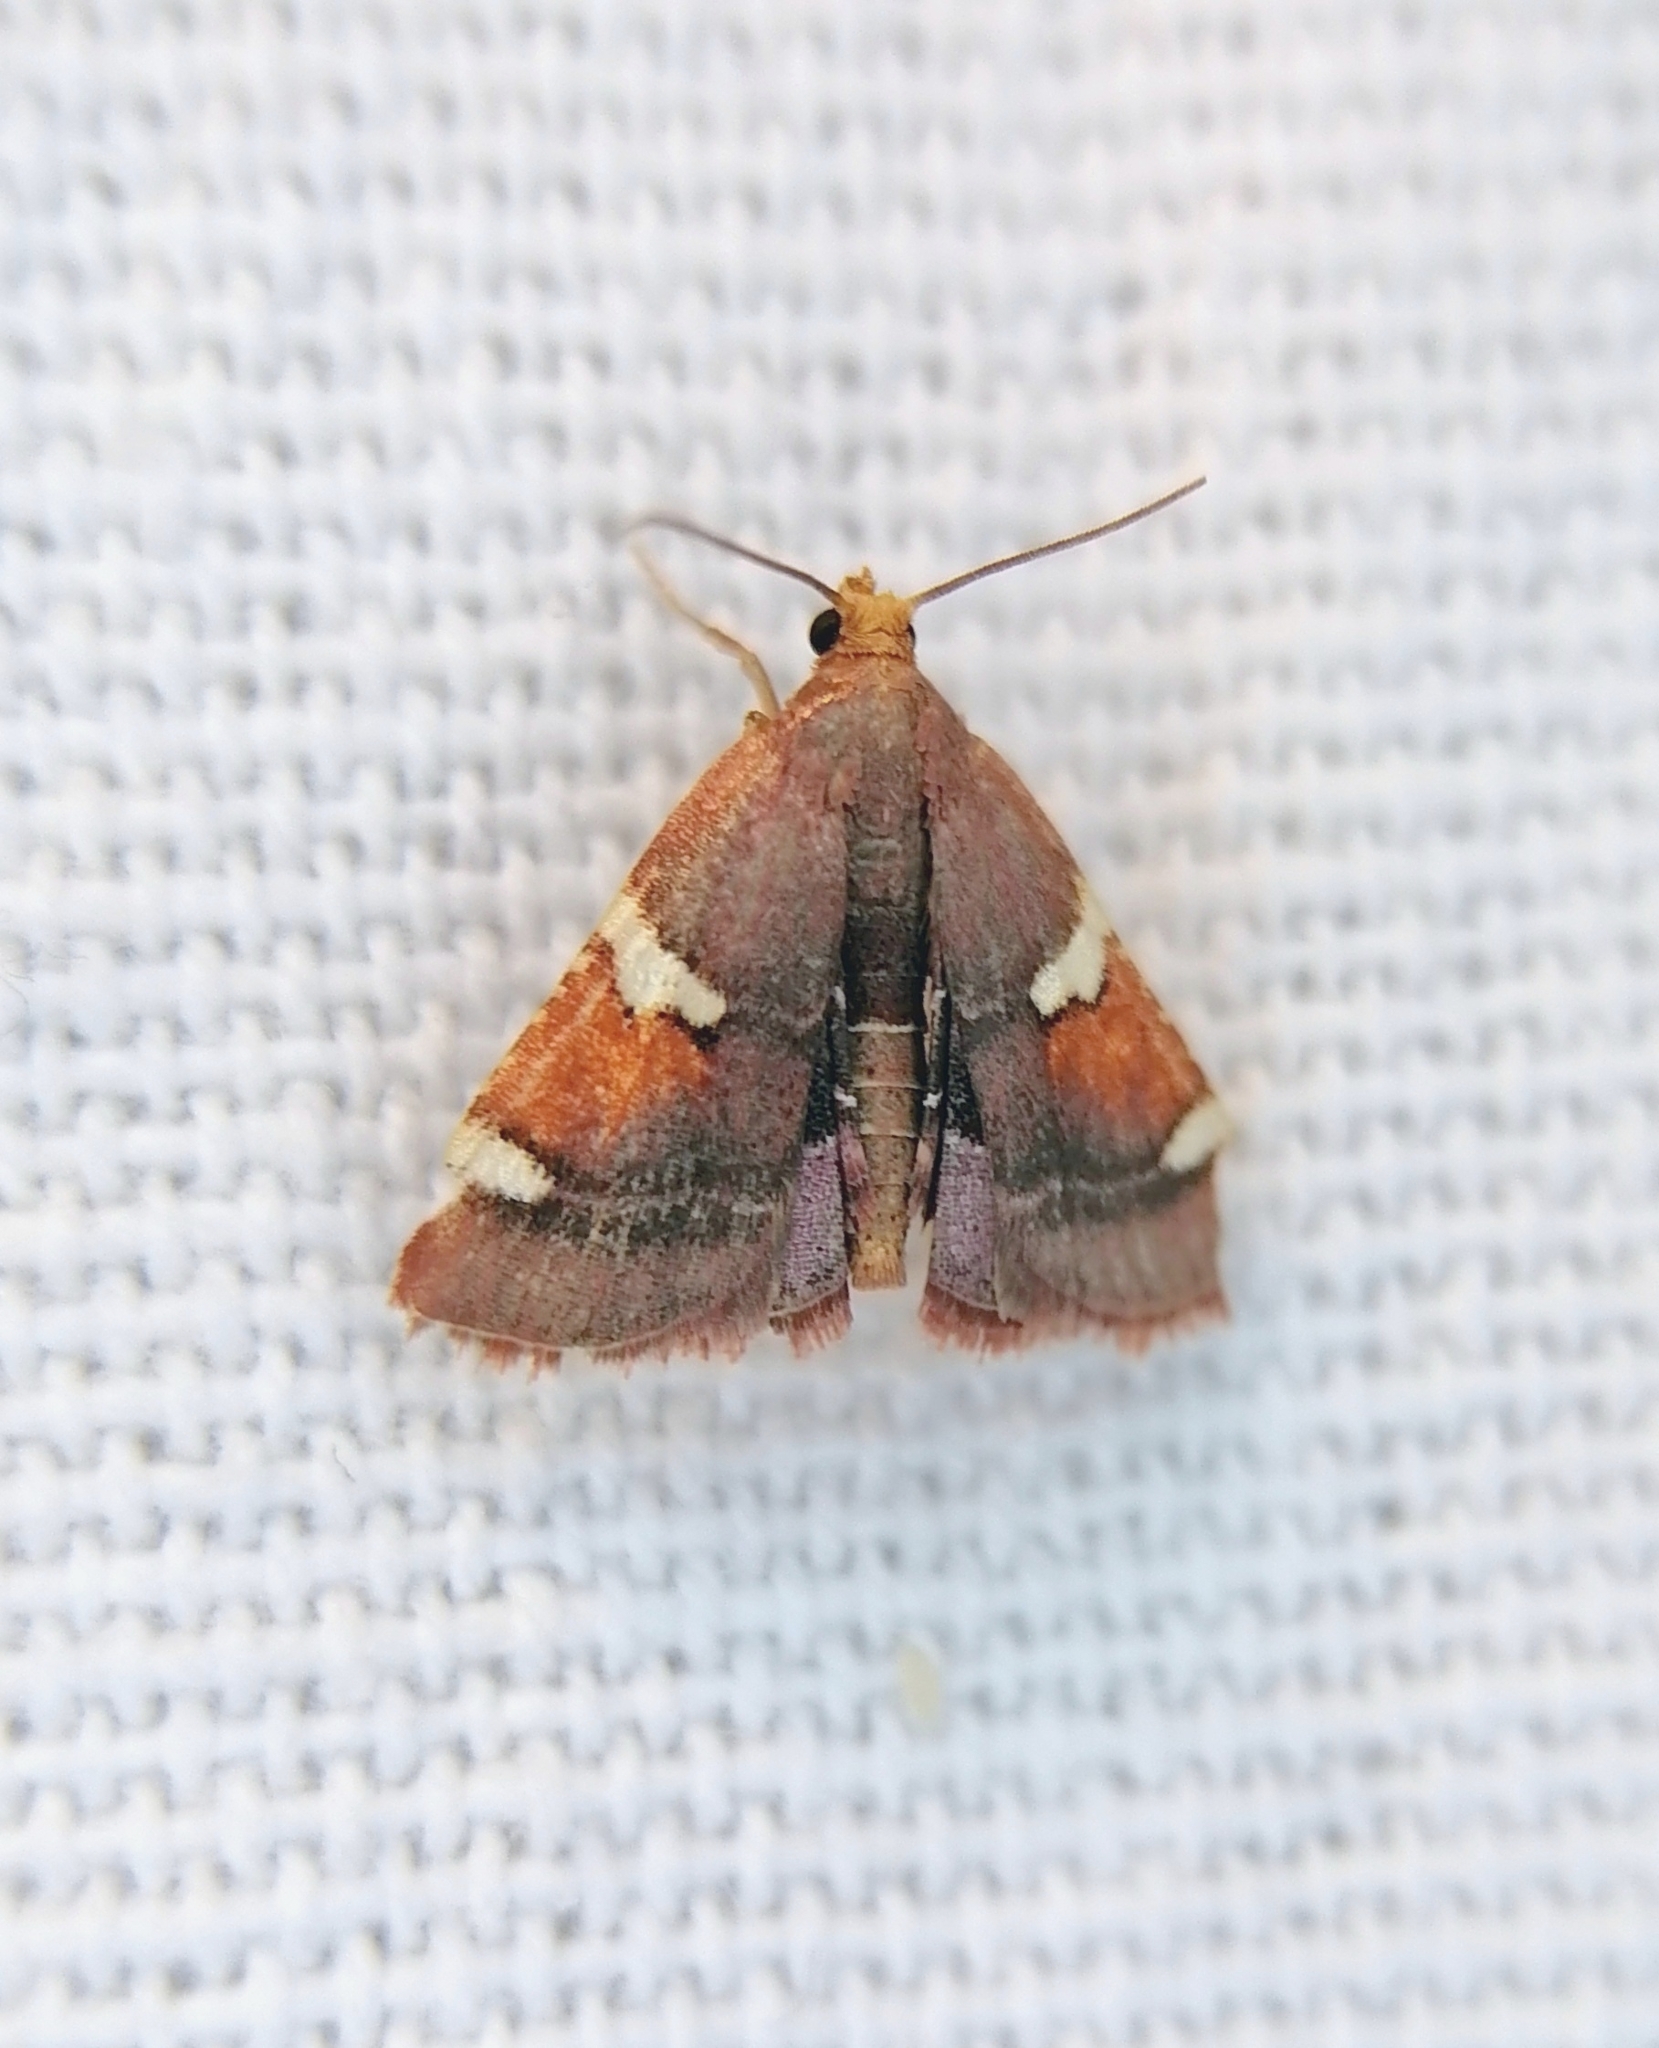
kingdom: Animalia
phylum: Arthropoda
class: Insecta
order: Lepidoptera
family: Pyralidae
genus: Pyralis
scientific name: Pyralis cardinalis
